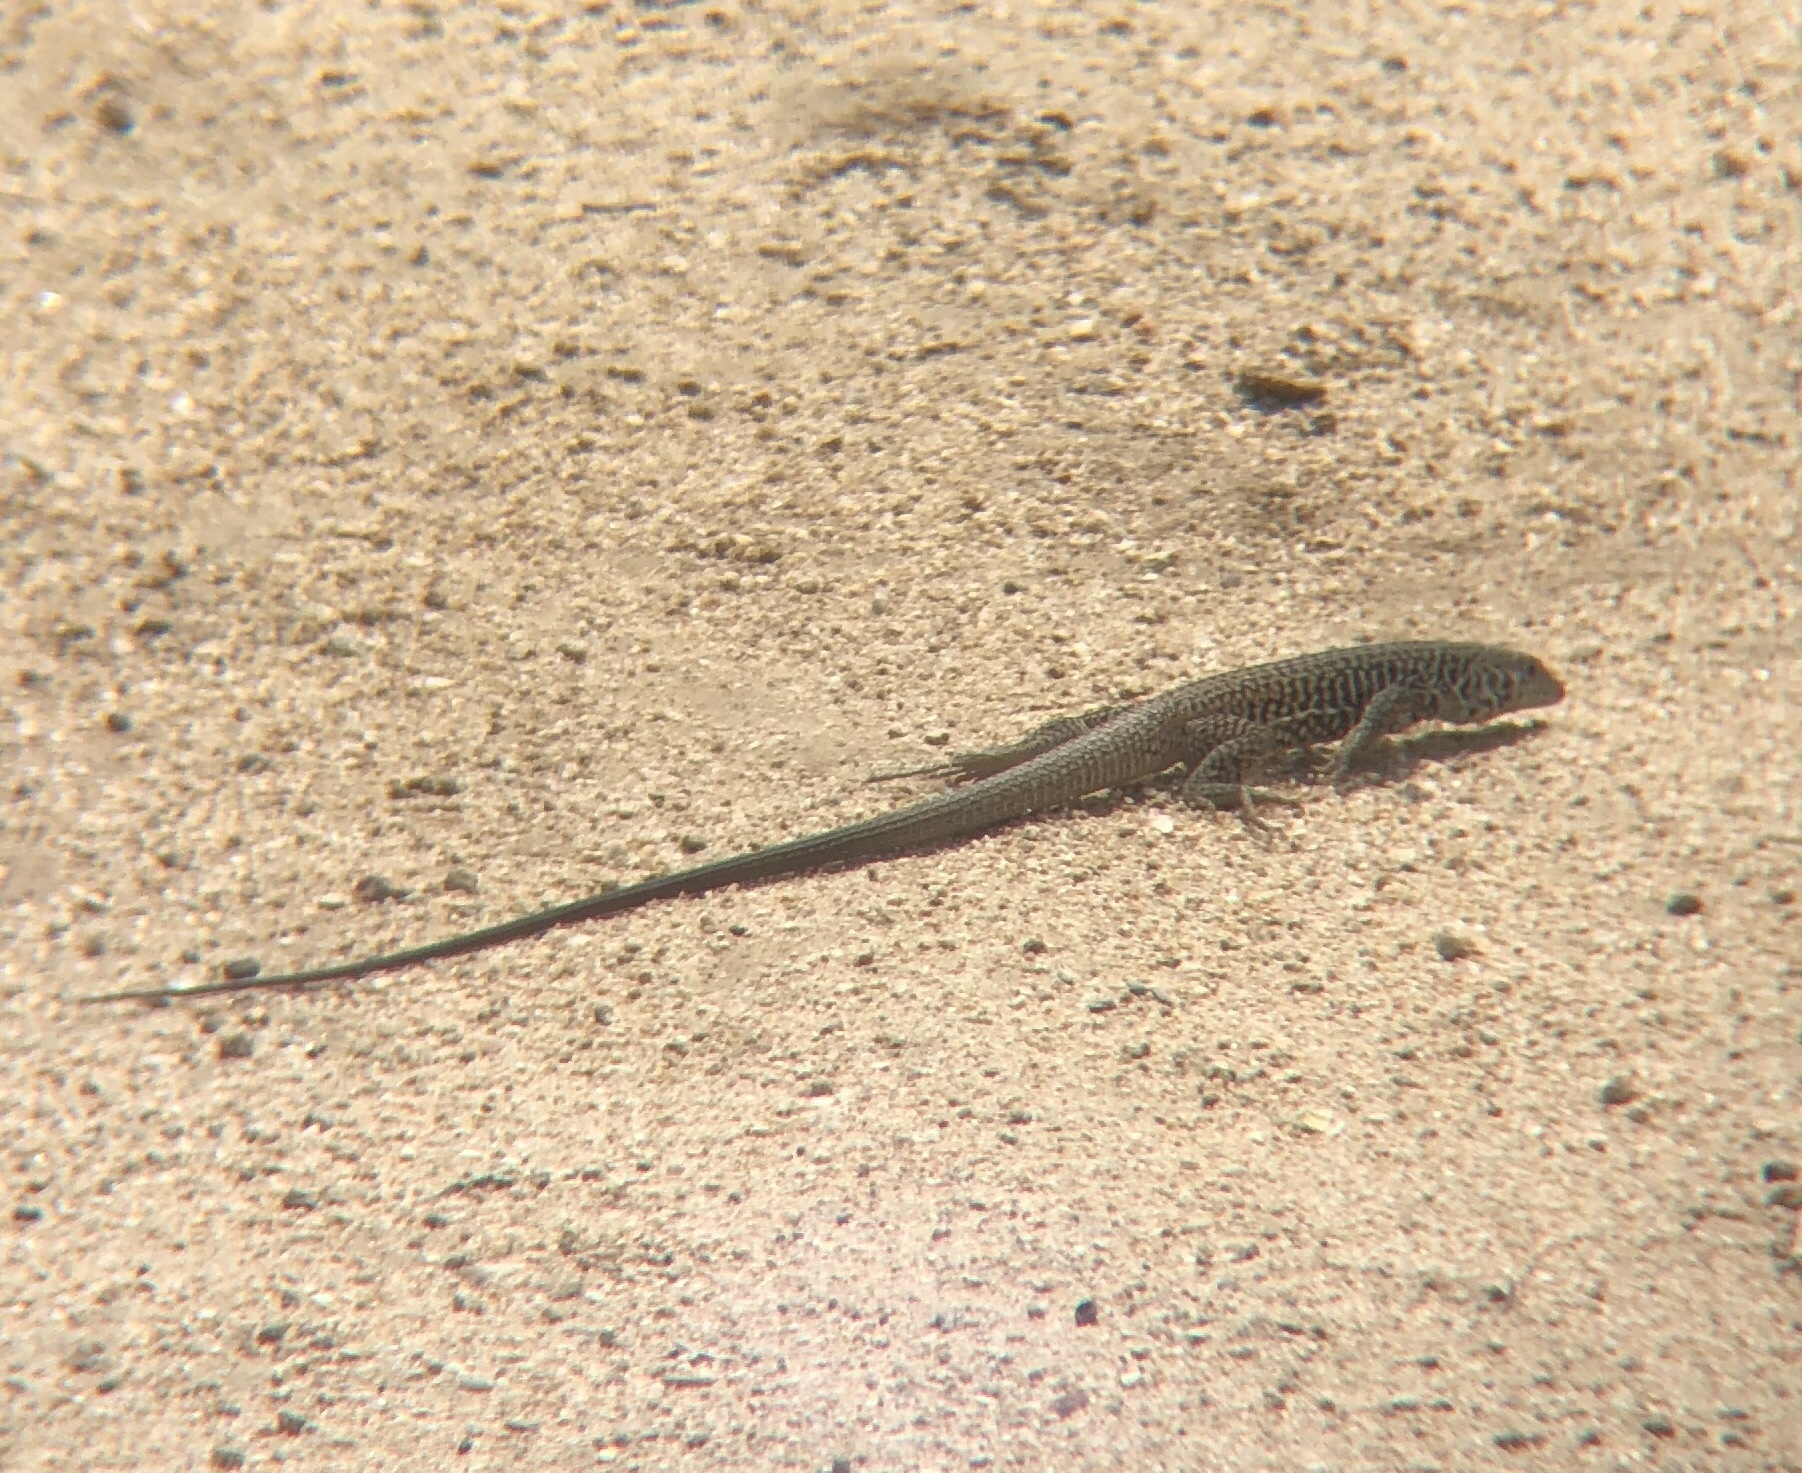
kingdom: Animalia
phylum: Chordata
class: Squamata
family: Teiidae
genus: Aspidoscelis
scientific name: Aspidoscelis tigris
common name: Tiger whiptail
